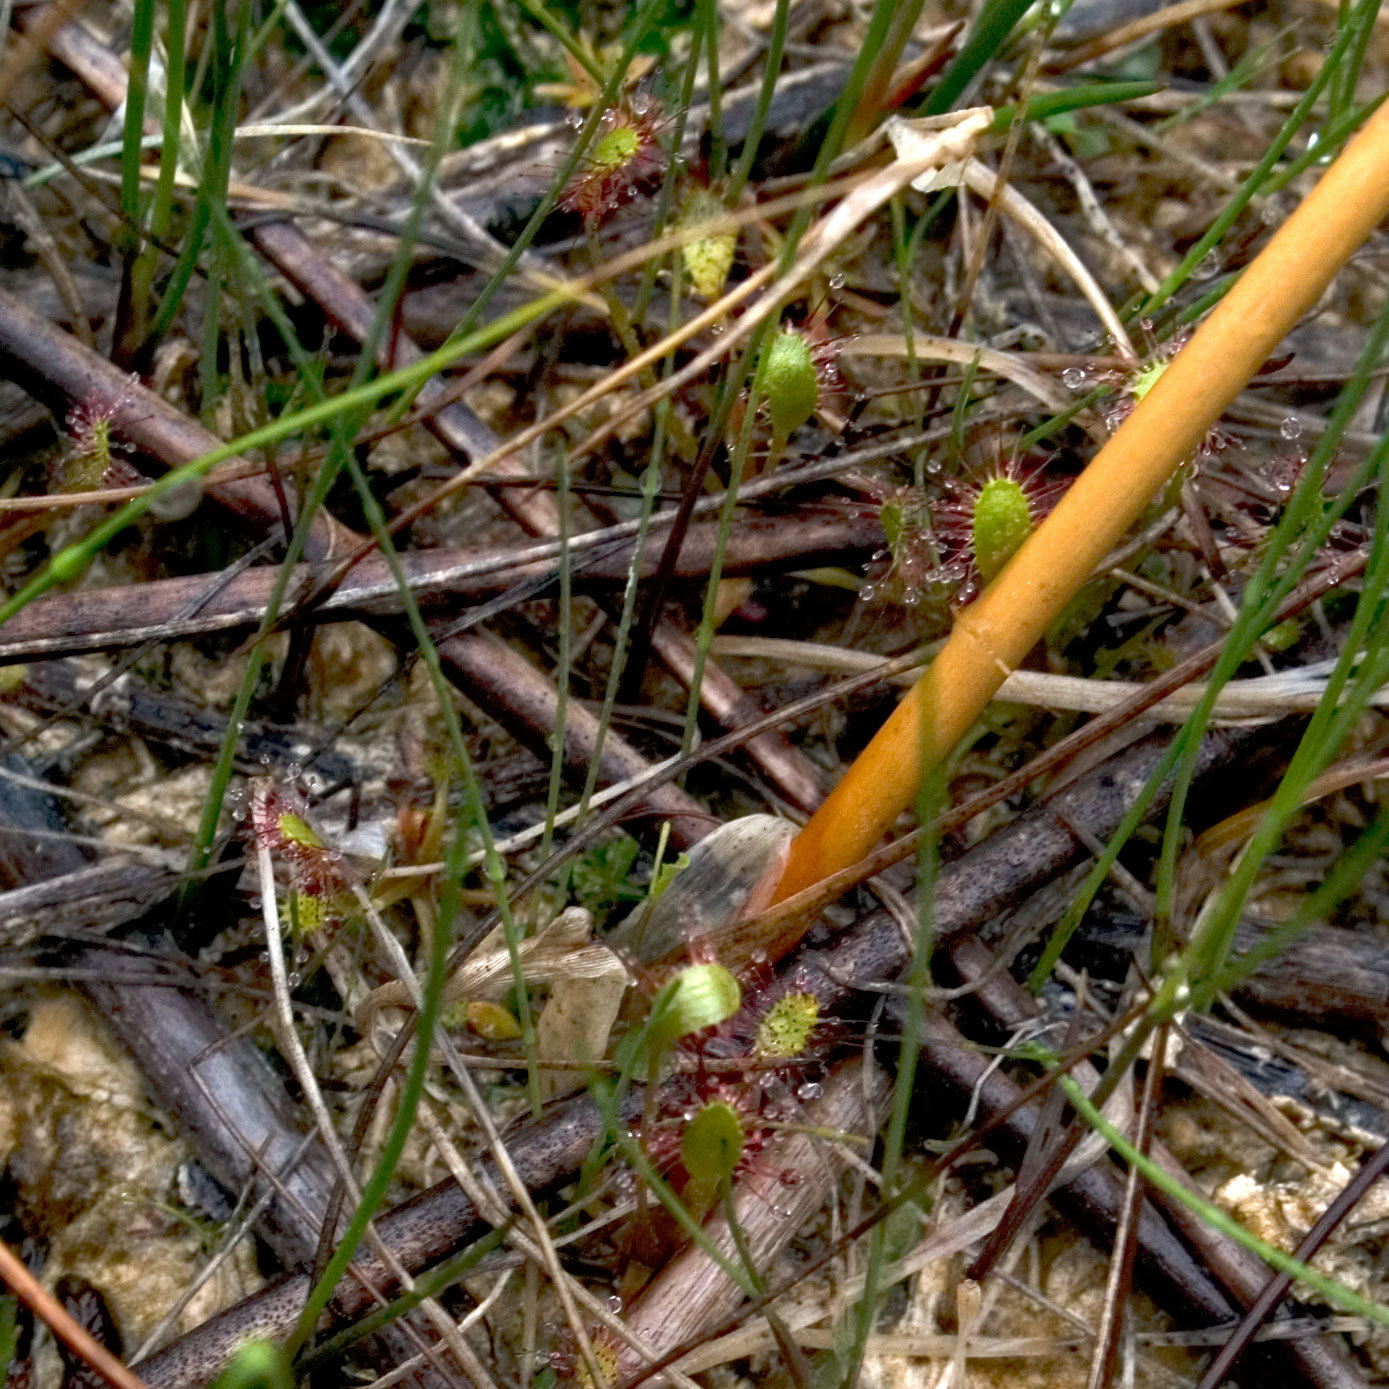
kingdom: Plantae
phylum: Tracheophyta
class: Magnoliopsida
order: Caryophyllales
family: Droseraceae
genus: Drosera
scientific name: Drosera anglica
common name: Great sundew
